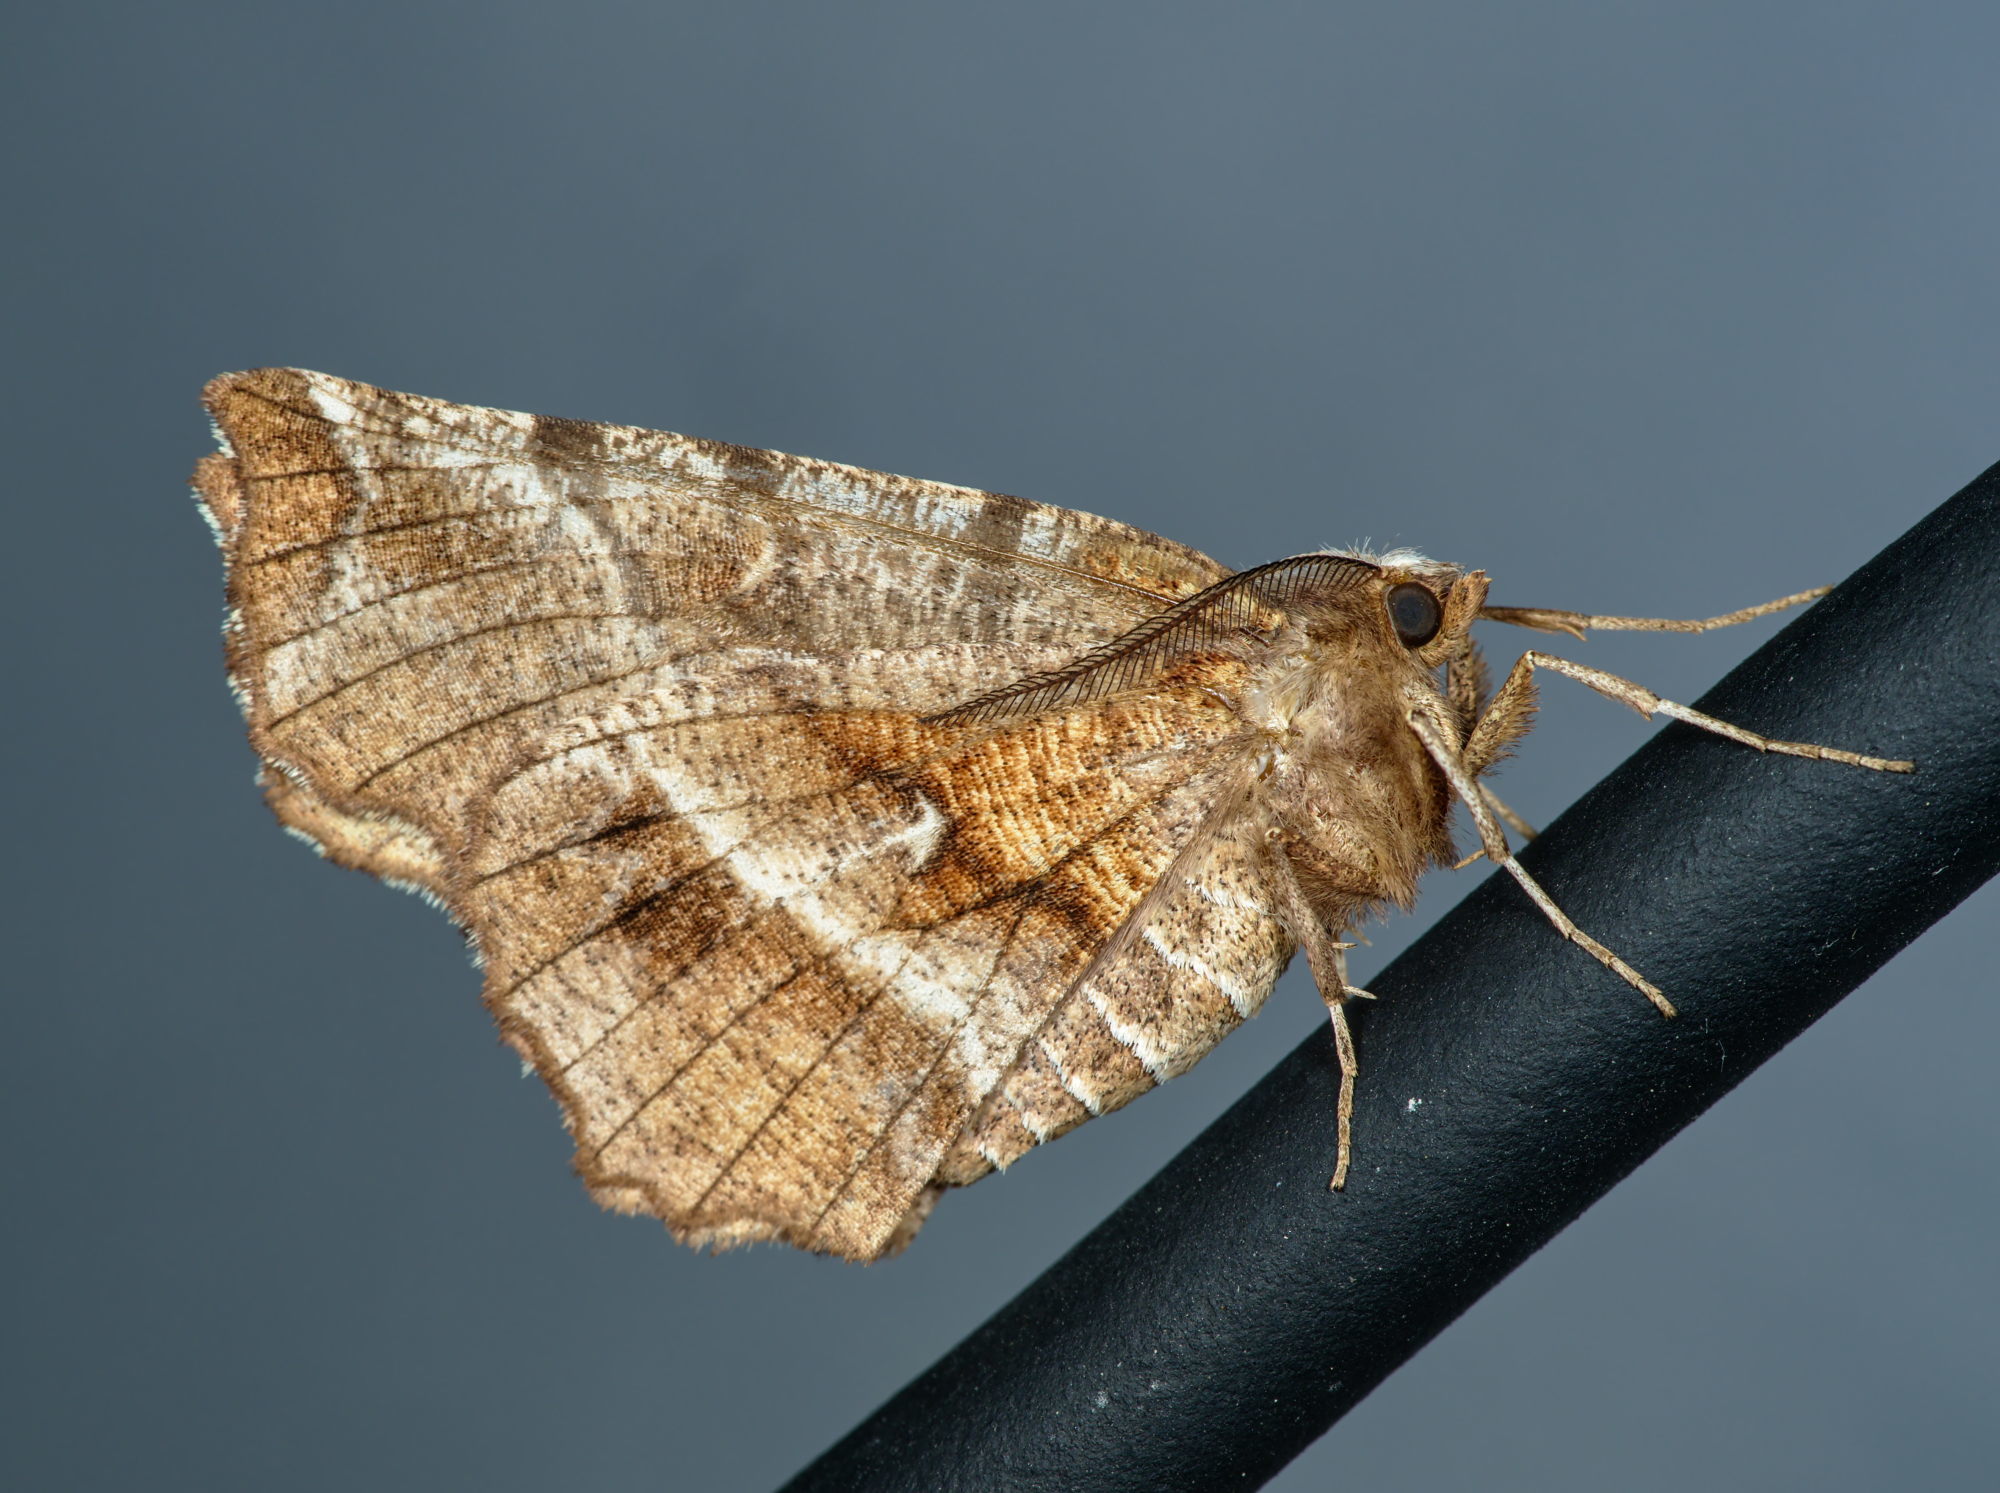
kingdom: Animalia
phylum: Arthropoda
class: Insecta
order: Lepidoptera
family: Geometridae
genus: Selenia
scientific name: Selenia dentaria
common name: Early thorn
